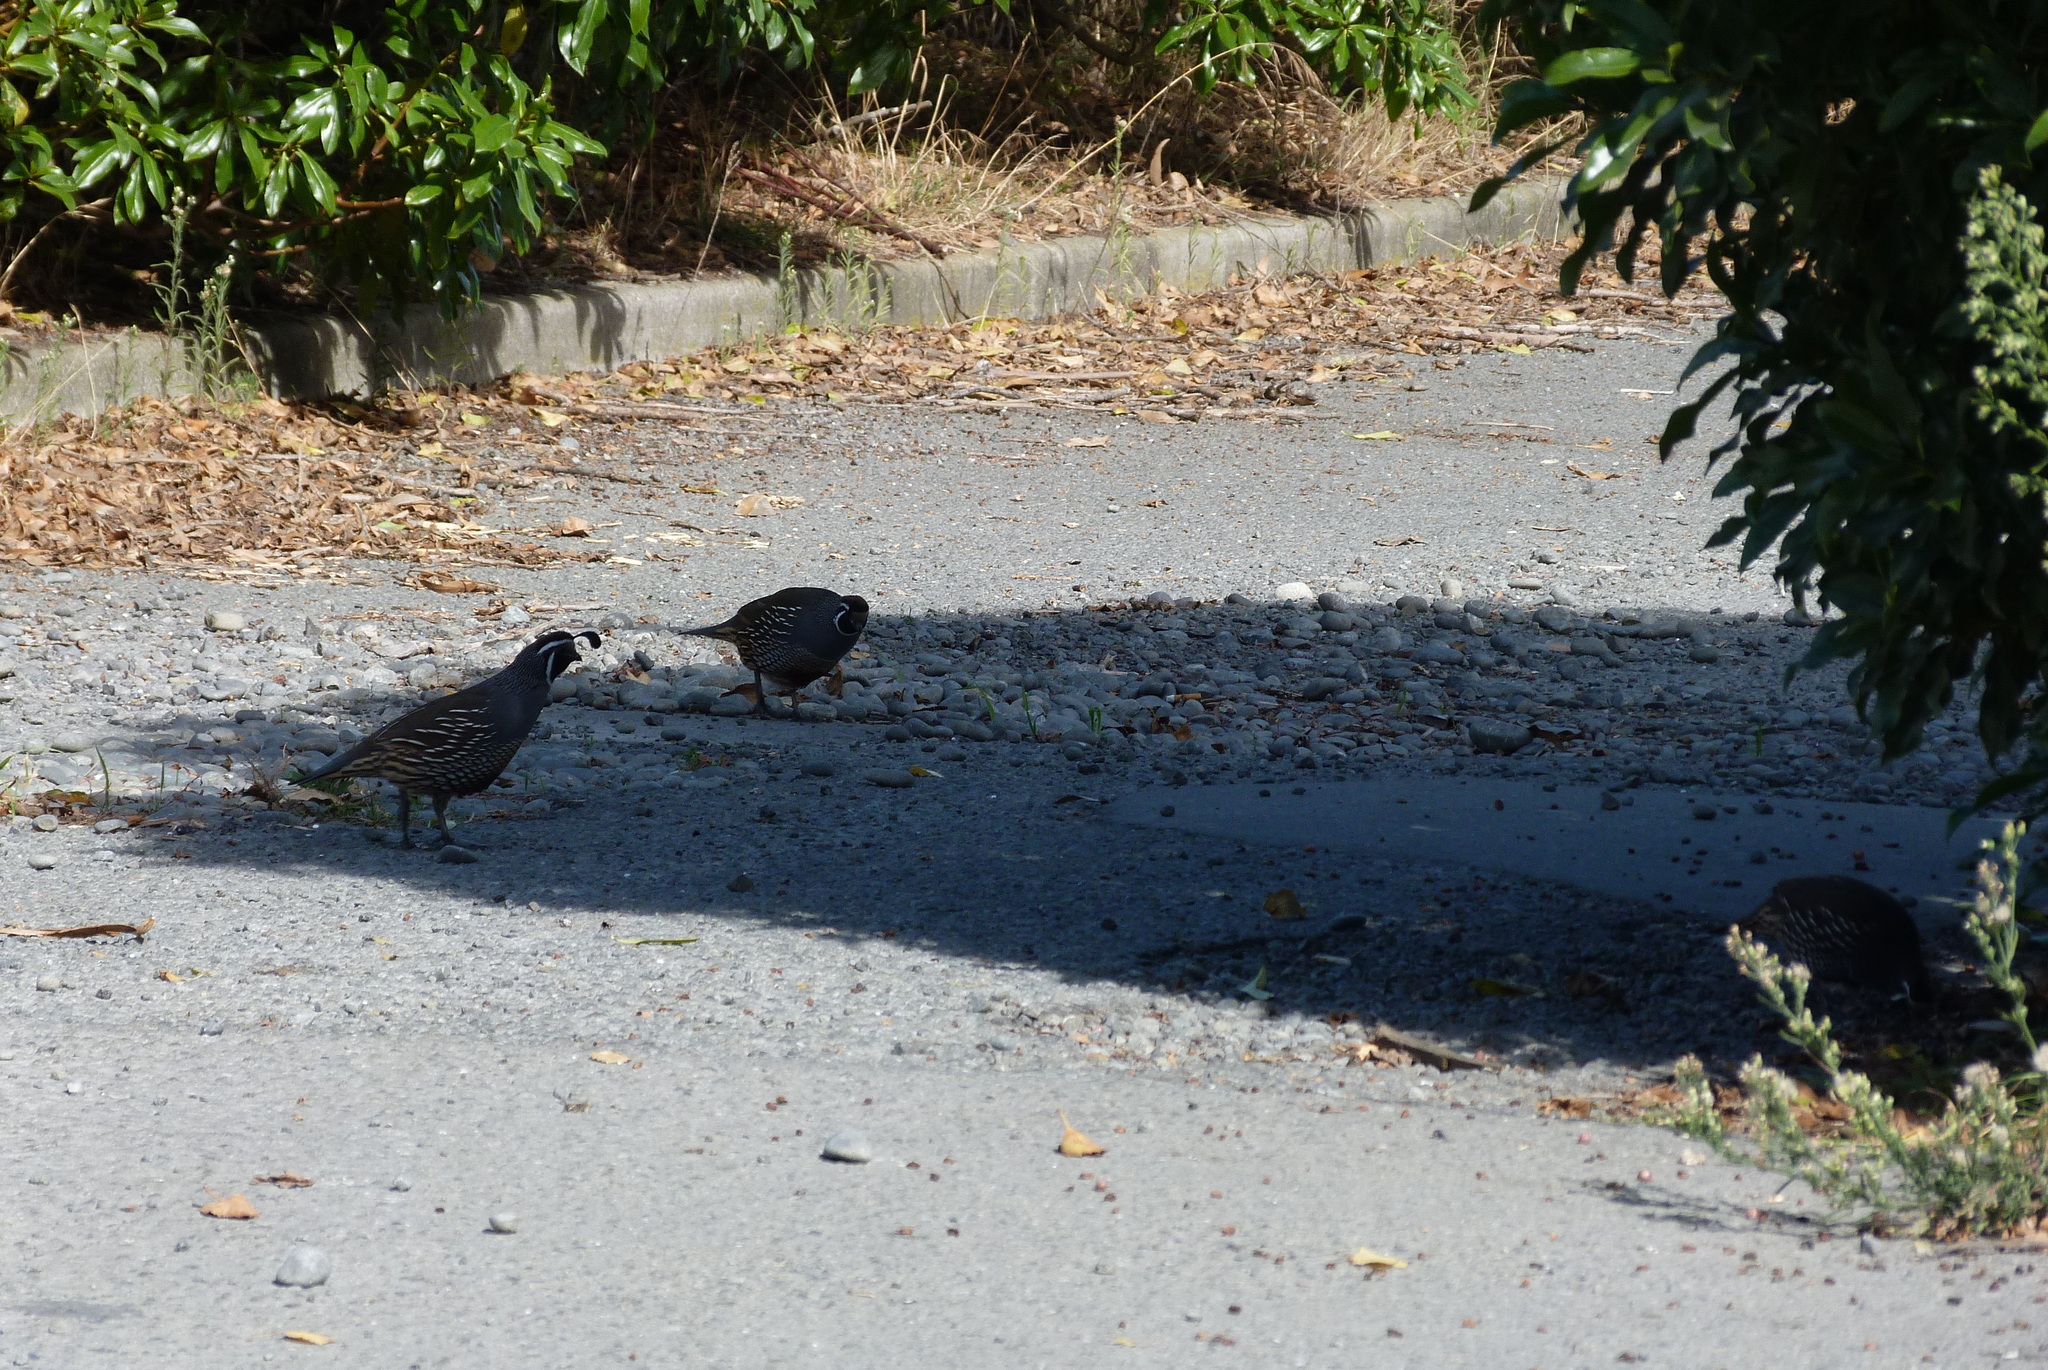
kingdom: Animalia
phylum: Chordata
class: Aves
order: Galliformes
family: Odontophoridae
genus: Callipepla
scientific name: Callipepla californica
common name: California quail
